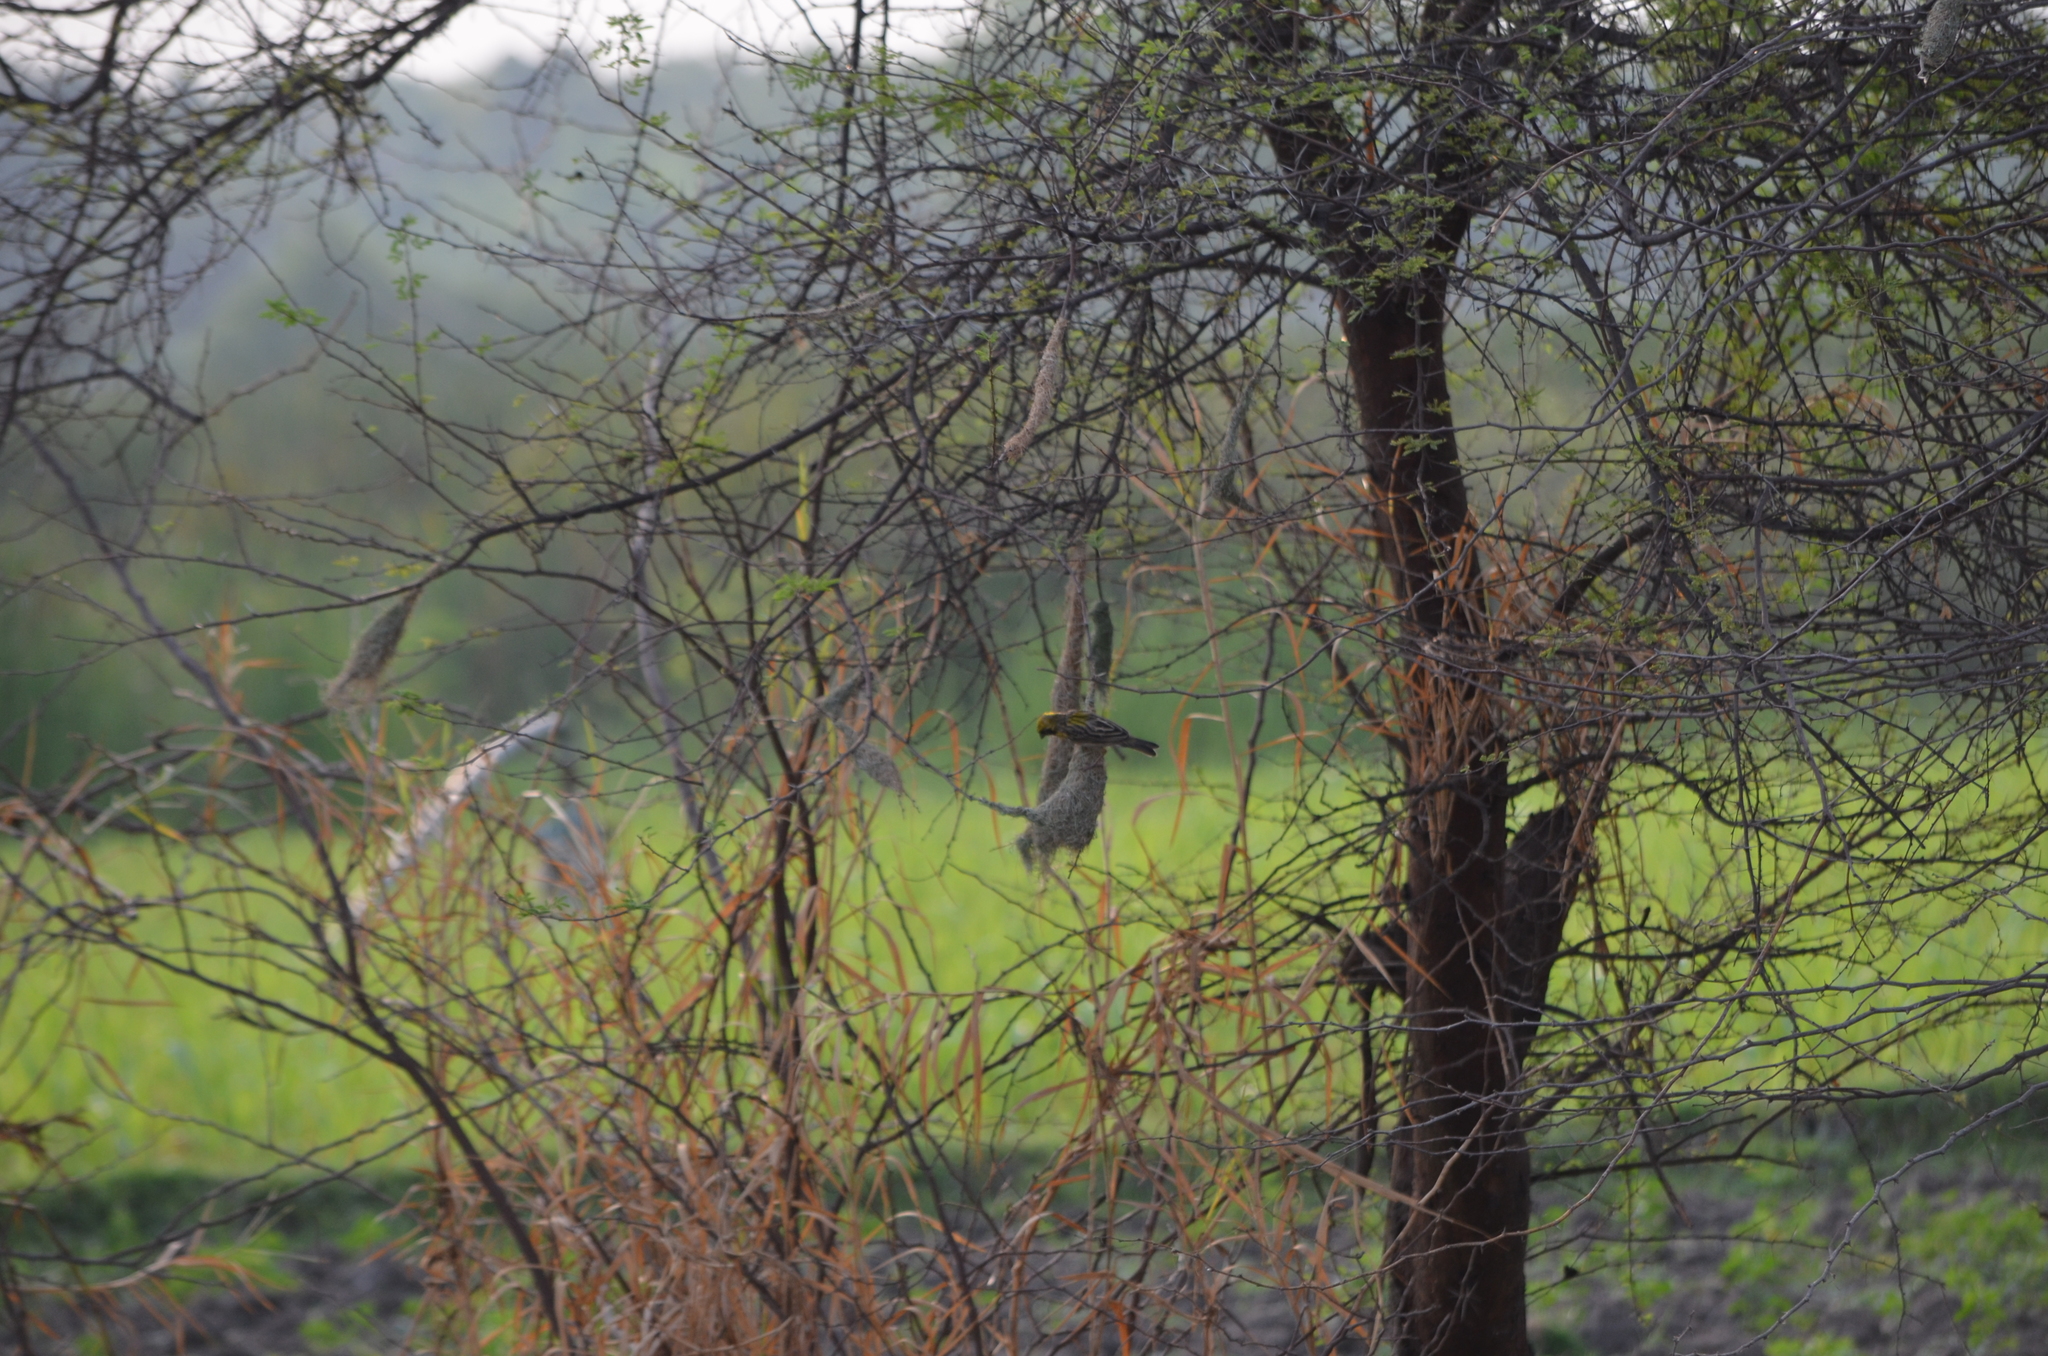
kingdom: Animalia
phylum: Chordata
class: Aves
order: Passeriformes
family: Ploceidae
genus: Ploceus
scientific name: Ploceus philippinus
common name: Baya weaver
